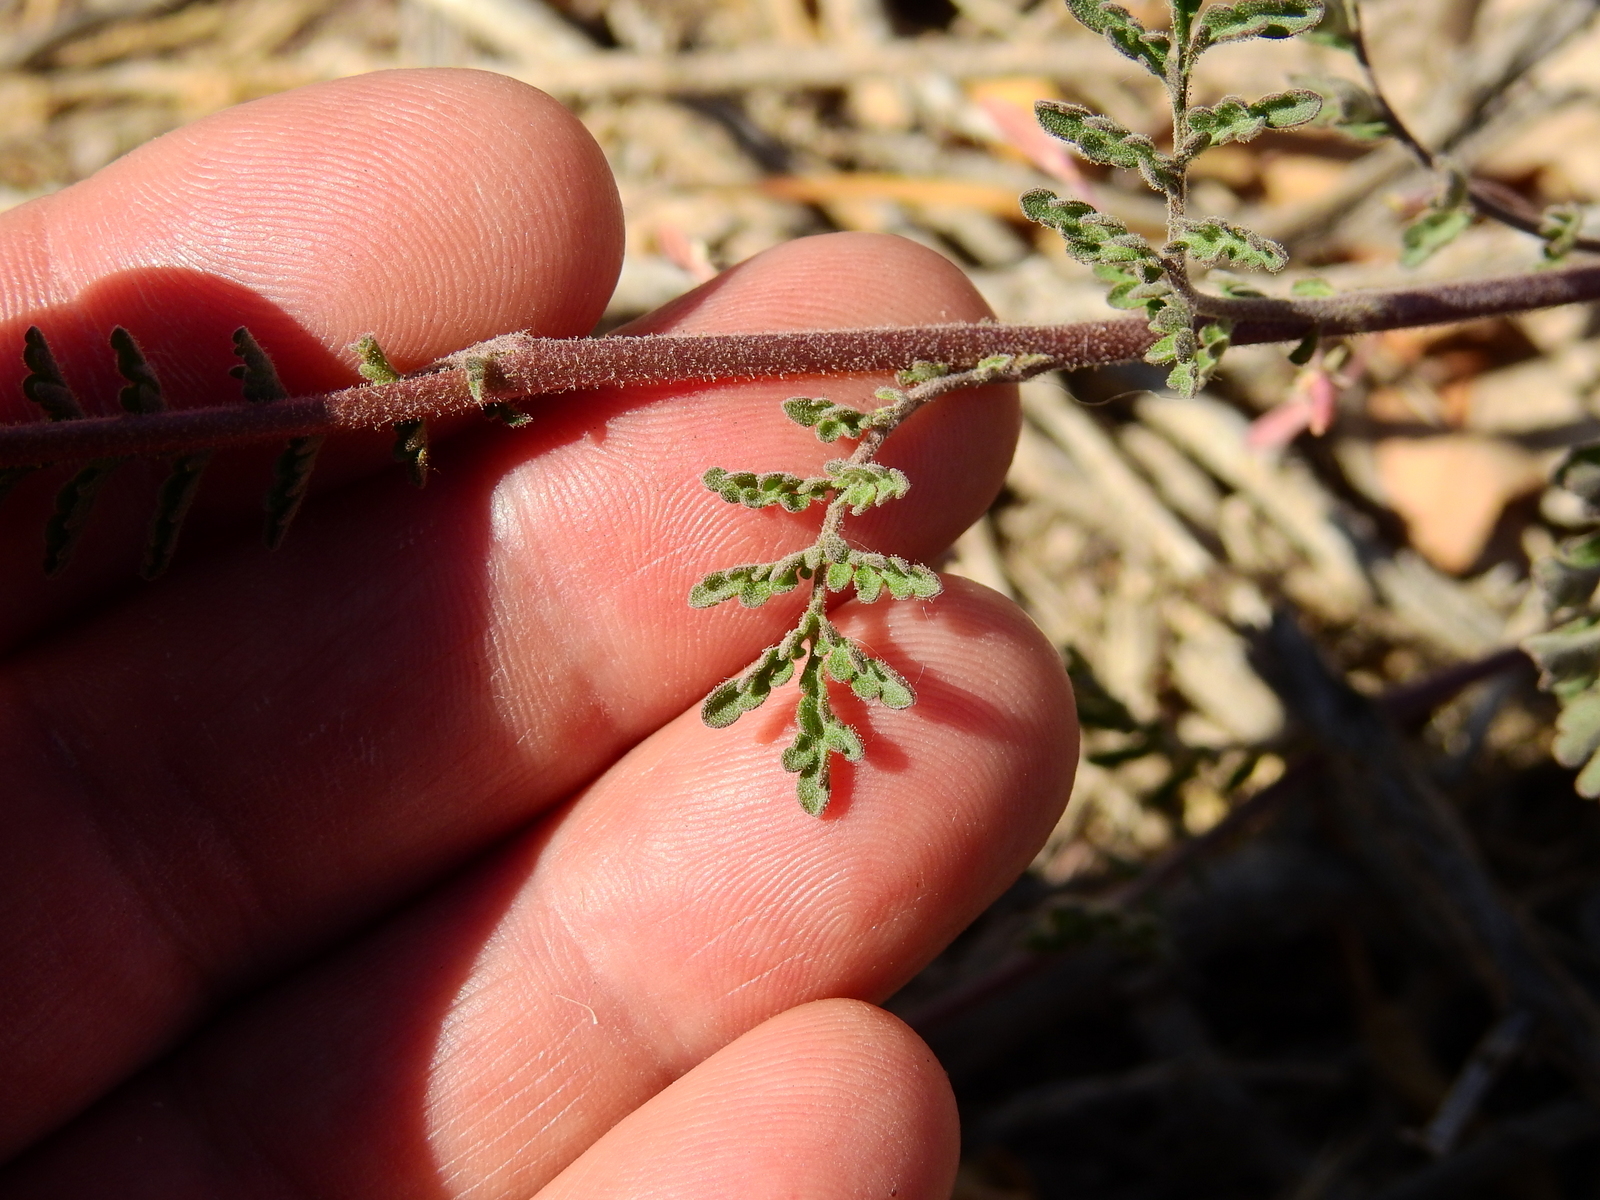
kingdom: Plantae
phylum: Tracheophyta
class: Magnoliopsida
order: Brassicales
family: Brassicaceae
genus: Descurainia
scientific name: Descurainia erodiifolia
